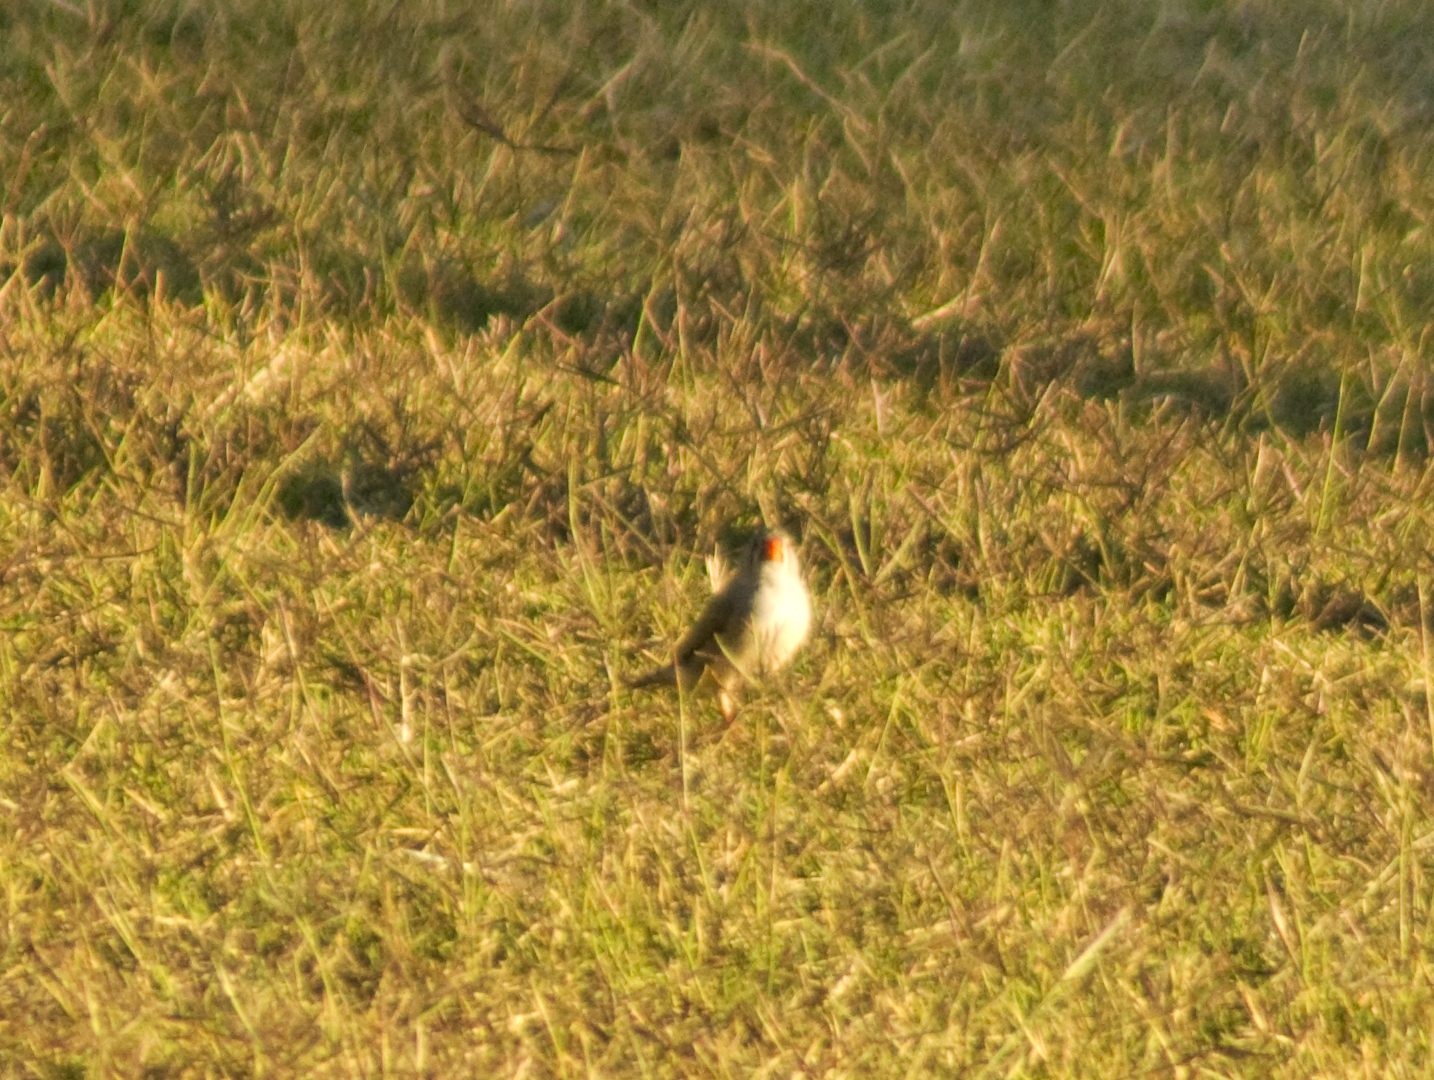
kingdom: Animalia
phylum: Chordata
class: Aves
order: Passeriformes
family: Estrildidae
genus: Taeniopygia
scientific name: Taeniopygia guttata
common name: Zebra finch
